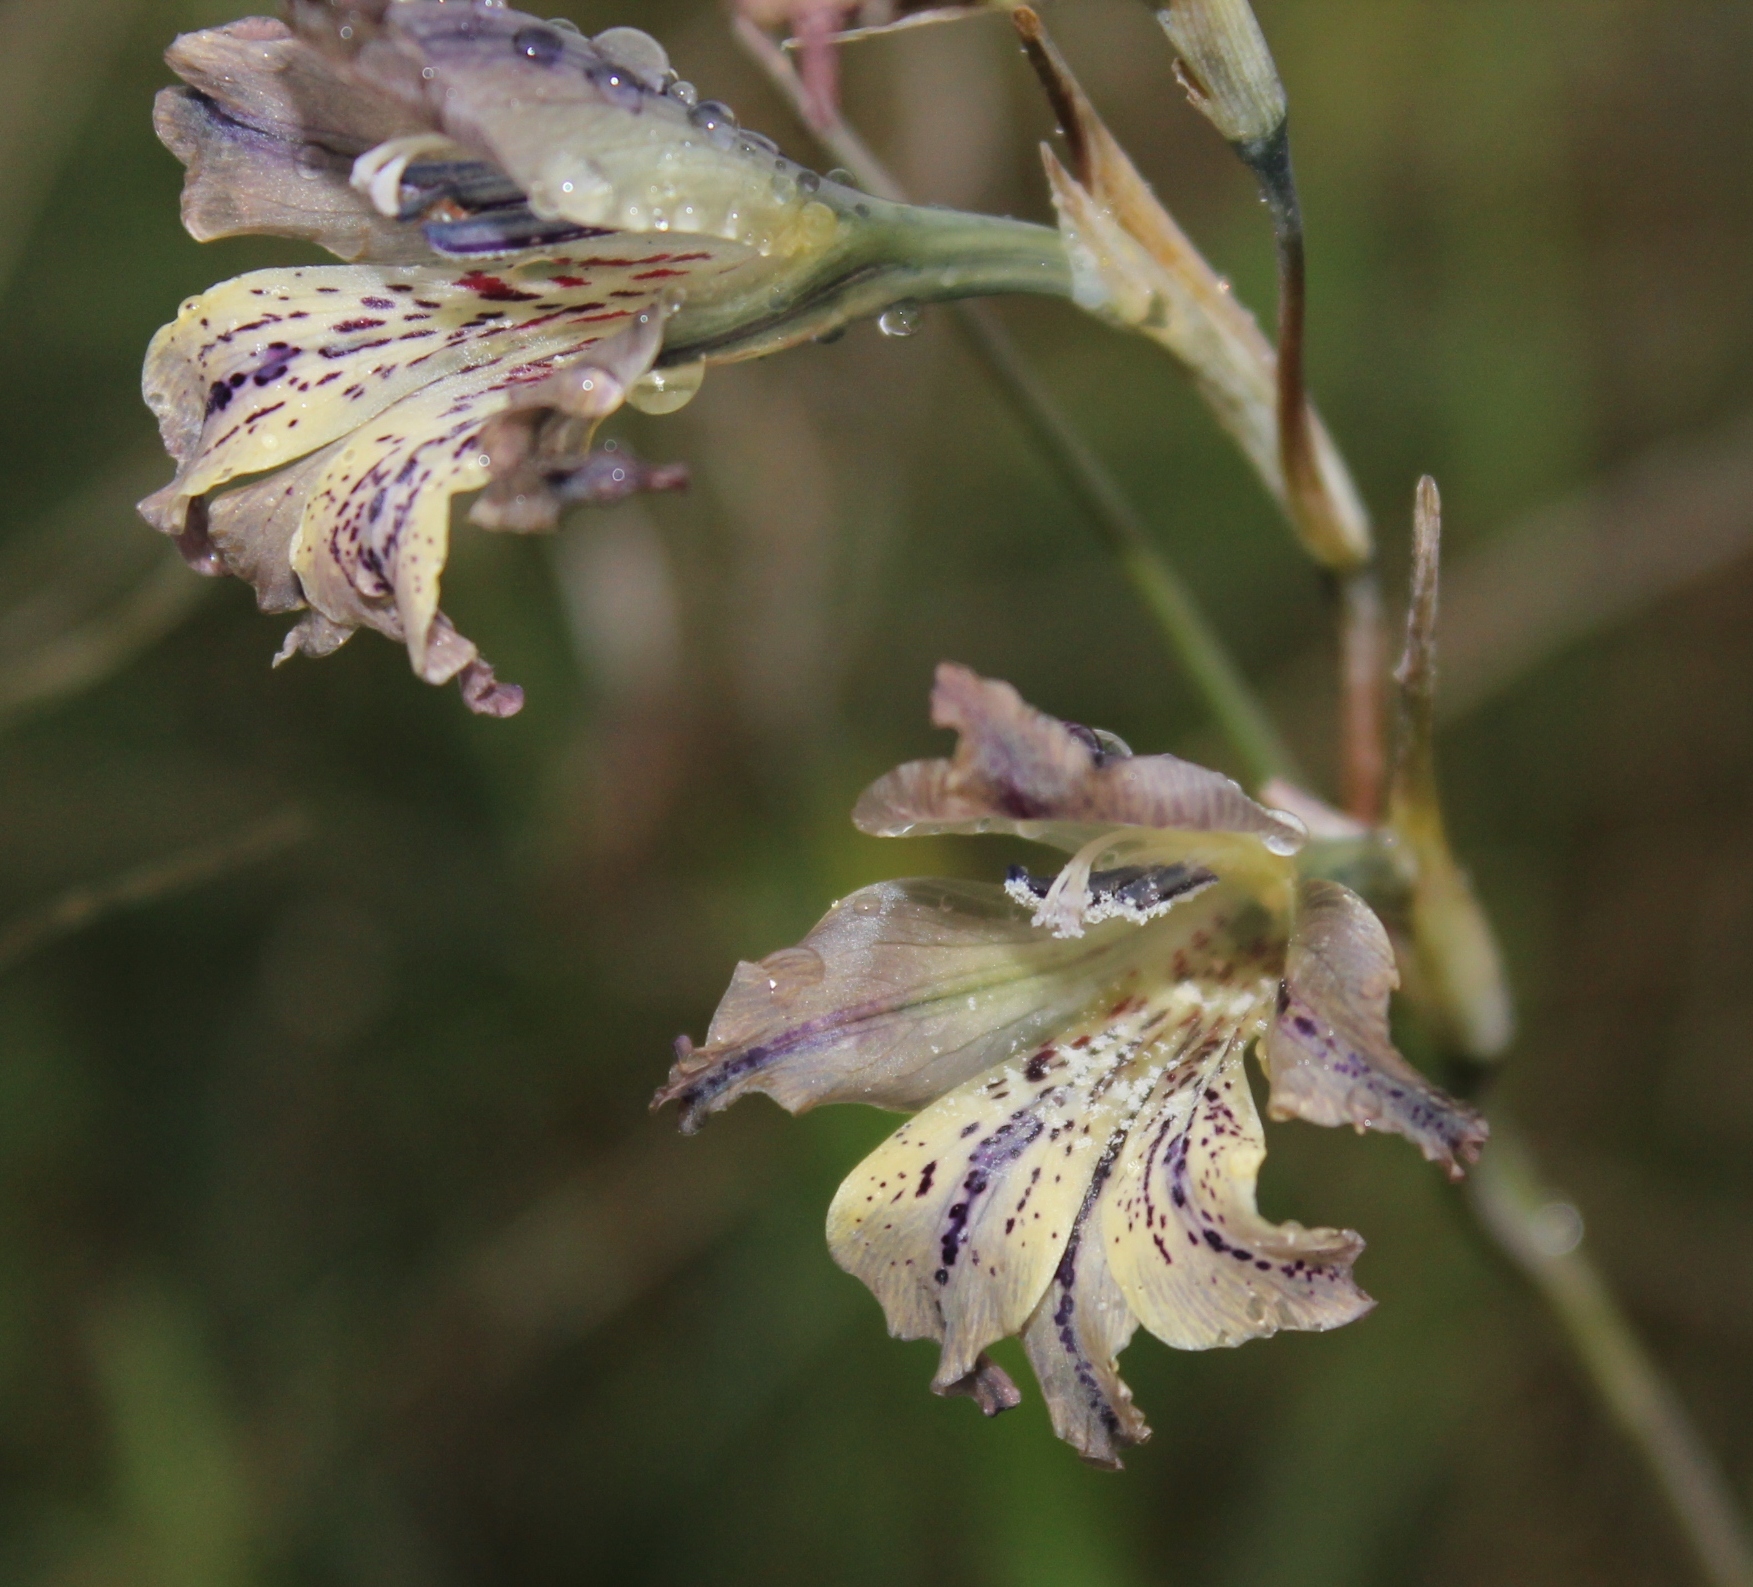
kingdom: Plantae
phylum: Tracheophyta
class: Liliopsida
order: Asparagales
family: Iridaceae
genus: Gladiolus
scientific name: Gladiolus recurvus
